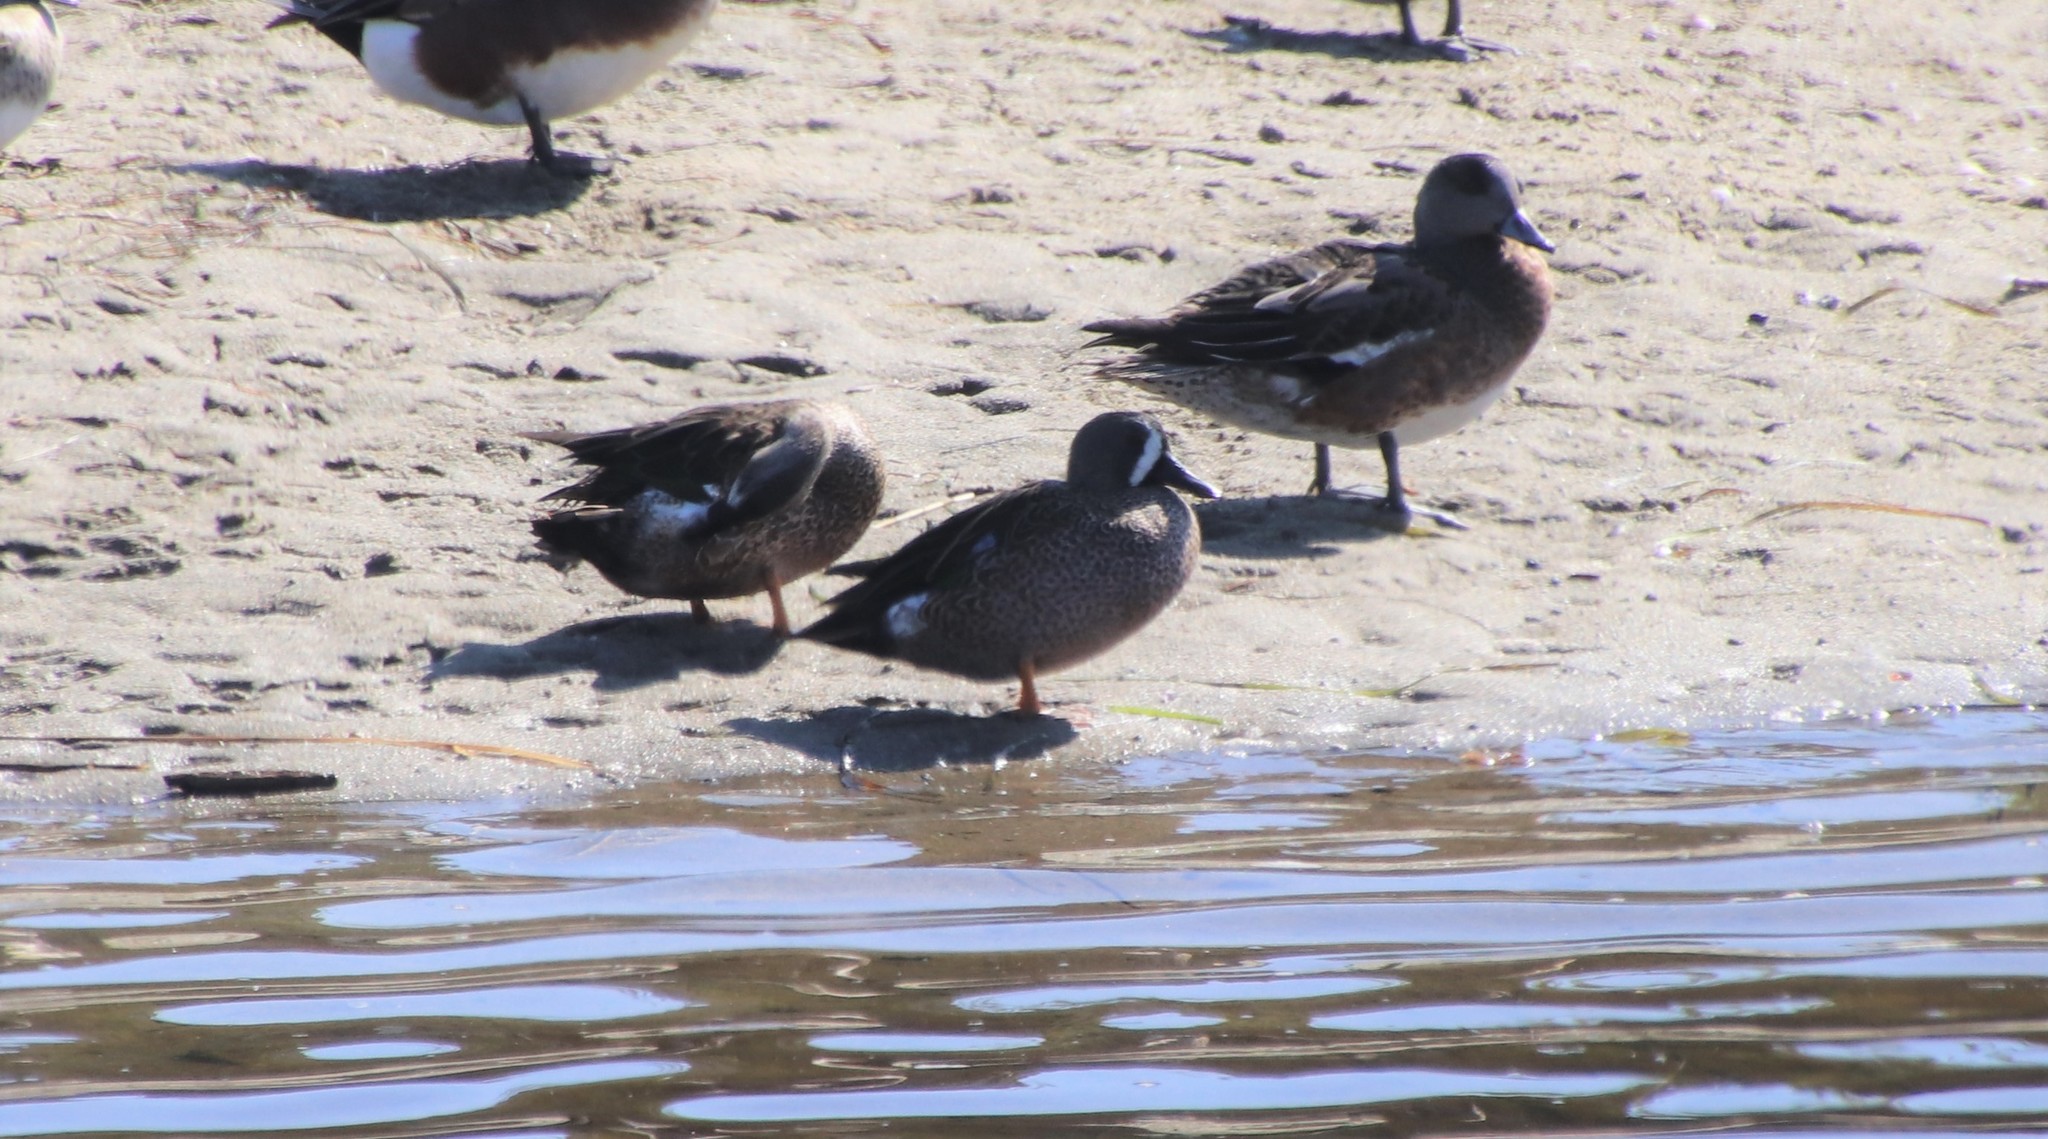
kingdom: Animalia
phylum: Chordata
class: Aves
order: Anseriformes
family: Anatidae
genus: Spatula
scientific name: Spatula discors
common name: Blue-winged teal
